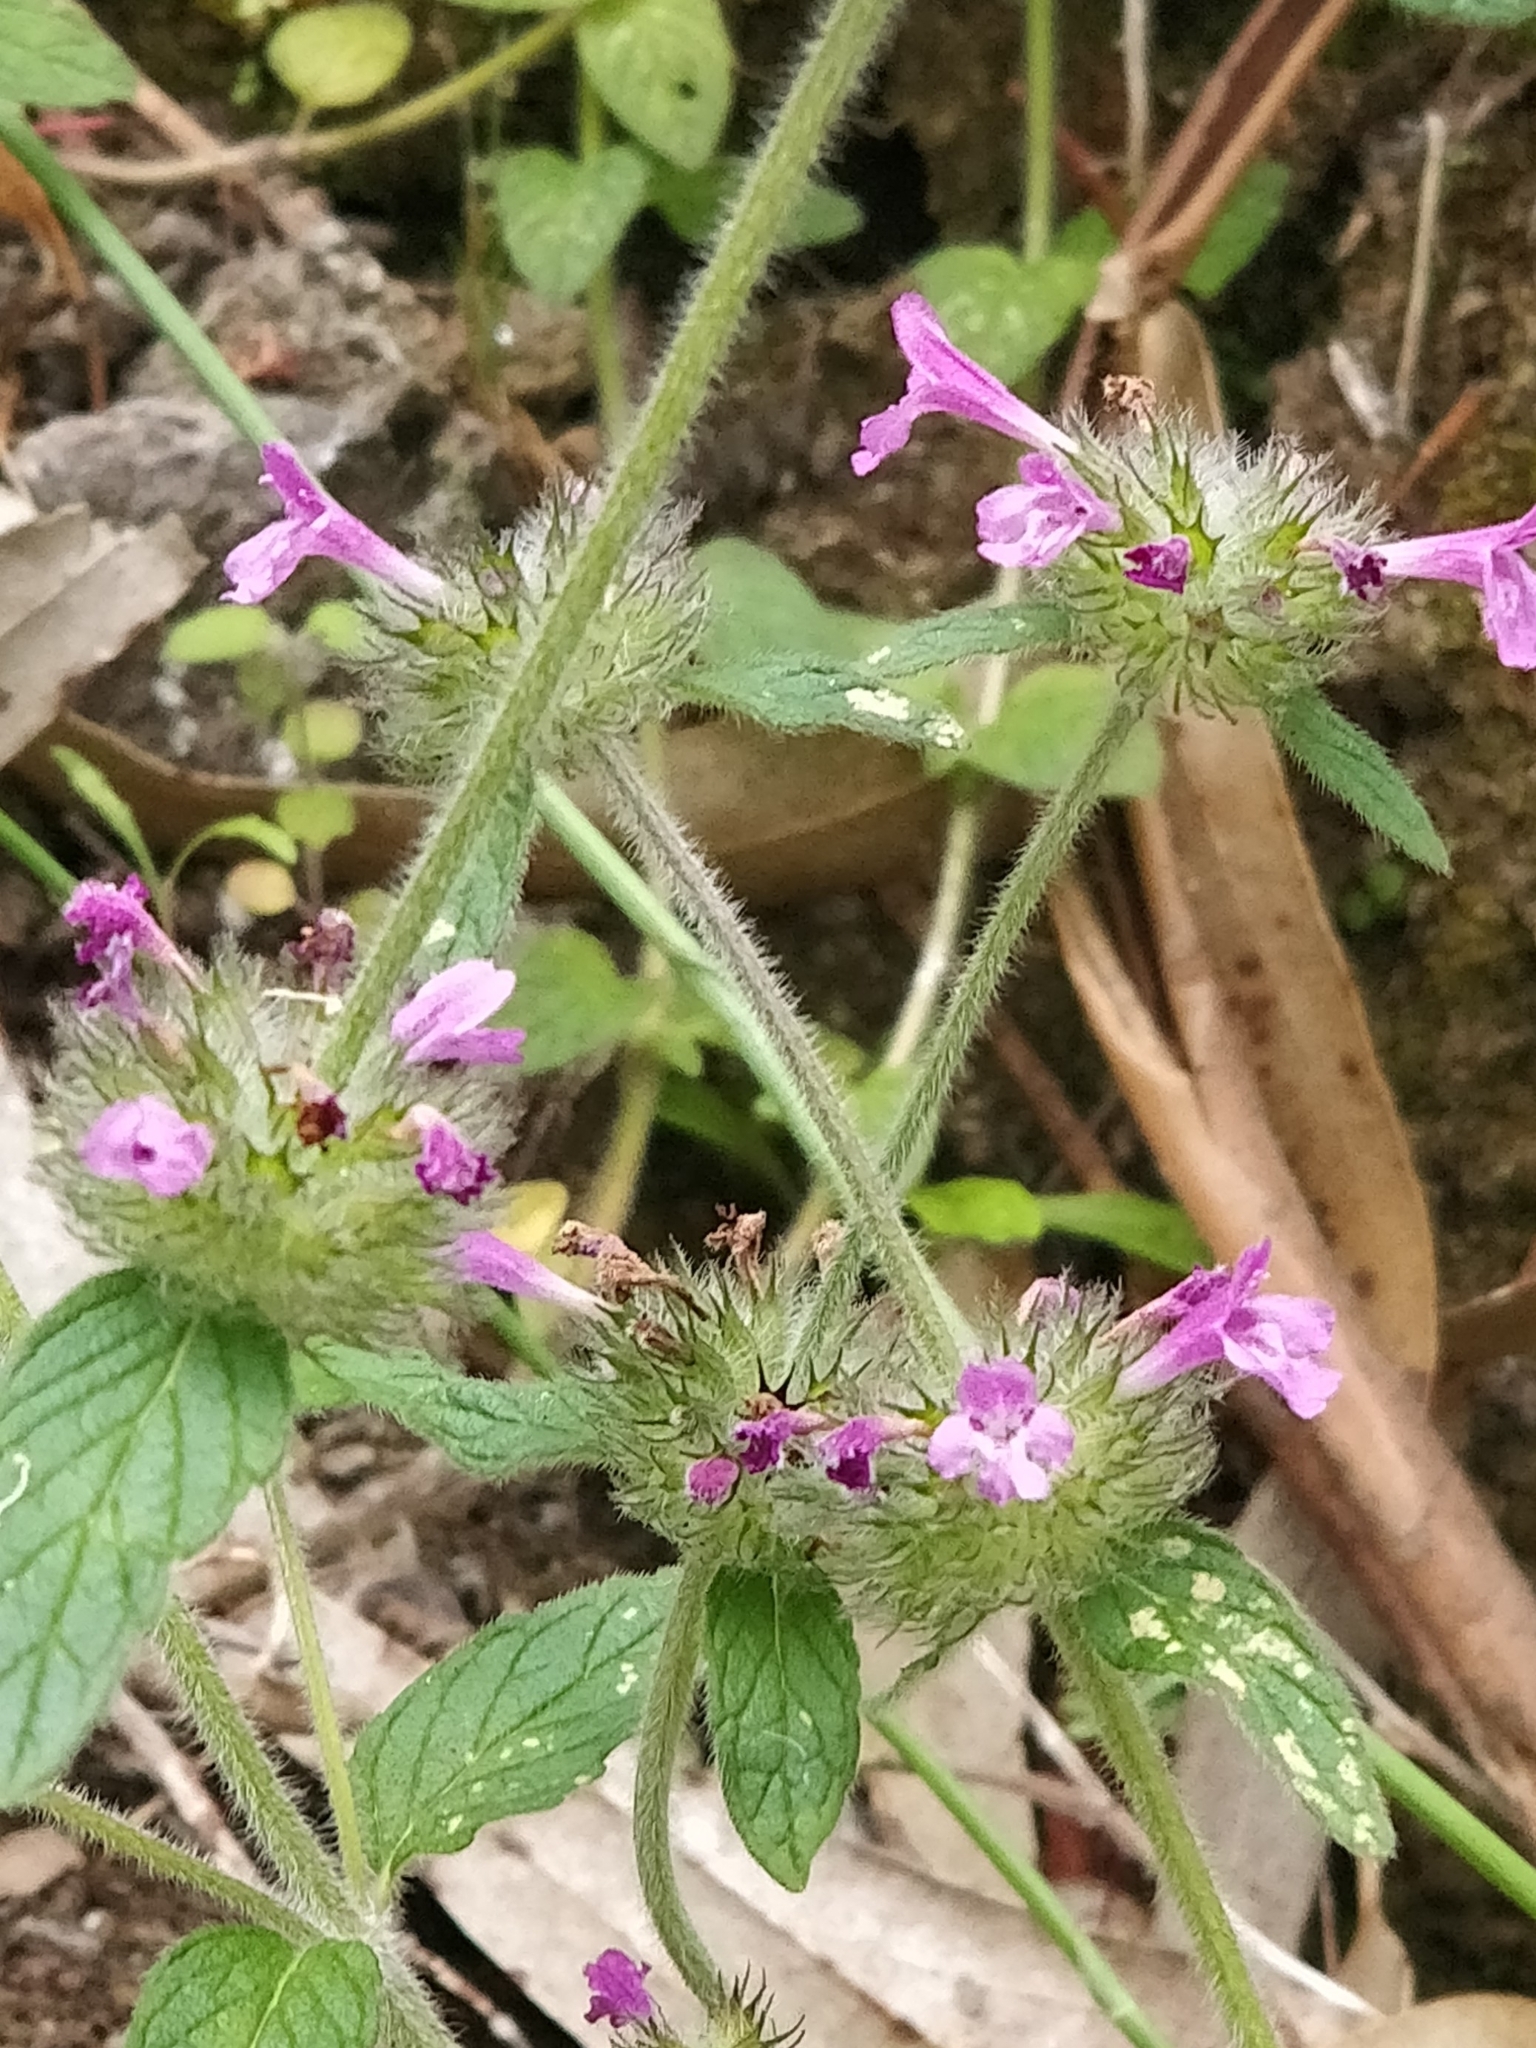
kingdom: Plantae
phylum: Tracheophyta
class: Magnoliopsida
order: Lamiales
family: Lamiaceae
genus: Clinopodium
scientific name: Clinopodium vulgare
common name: Wild basil
